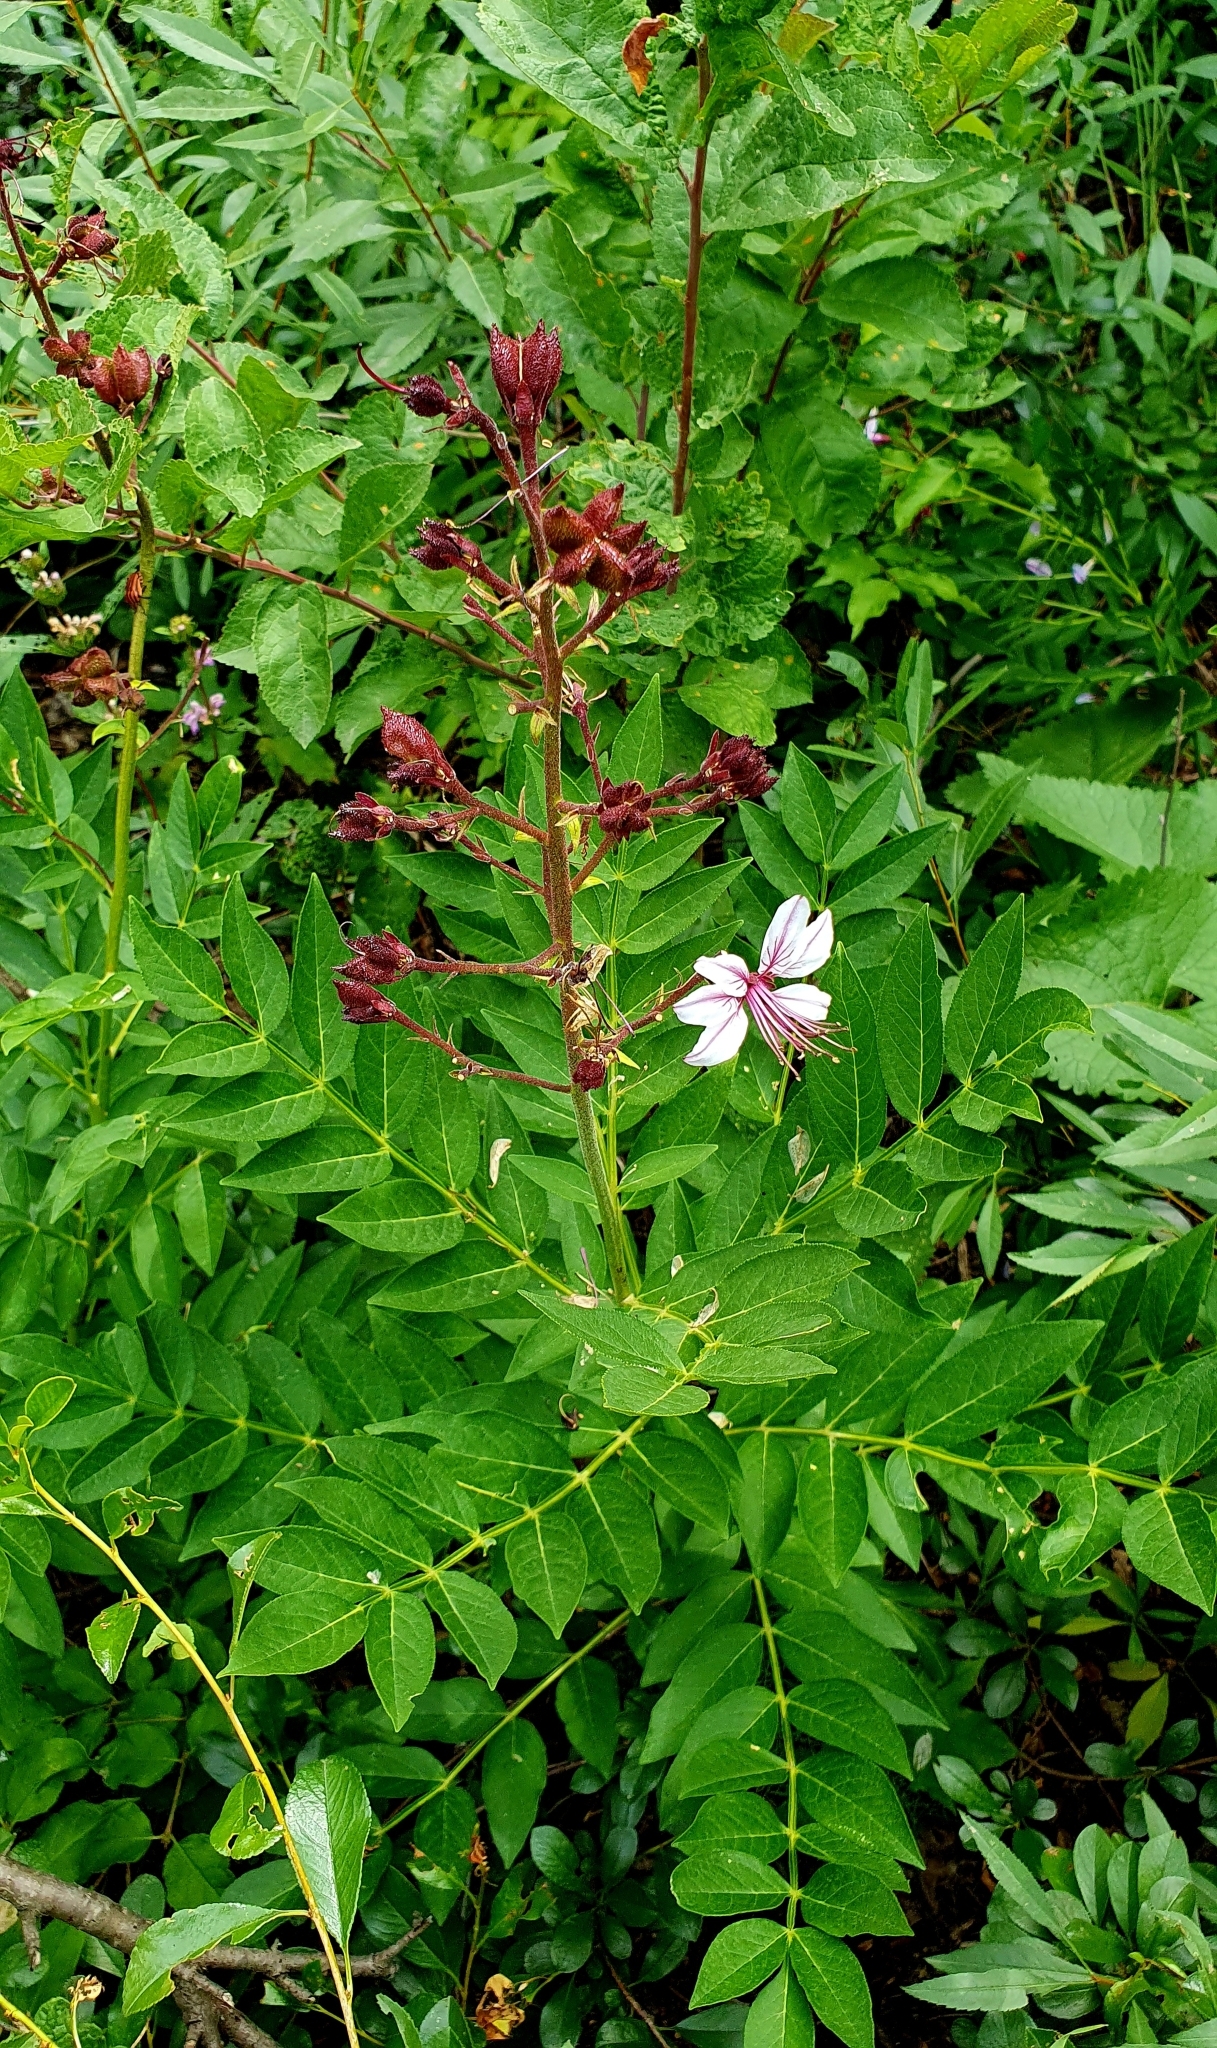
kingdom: Plantae
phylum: Tracheophyta
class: Magnoliopsida
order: Sapindales
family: Rutaceae
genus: Dictamnus
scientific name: Dictamnus albus
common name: Gasplant
